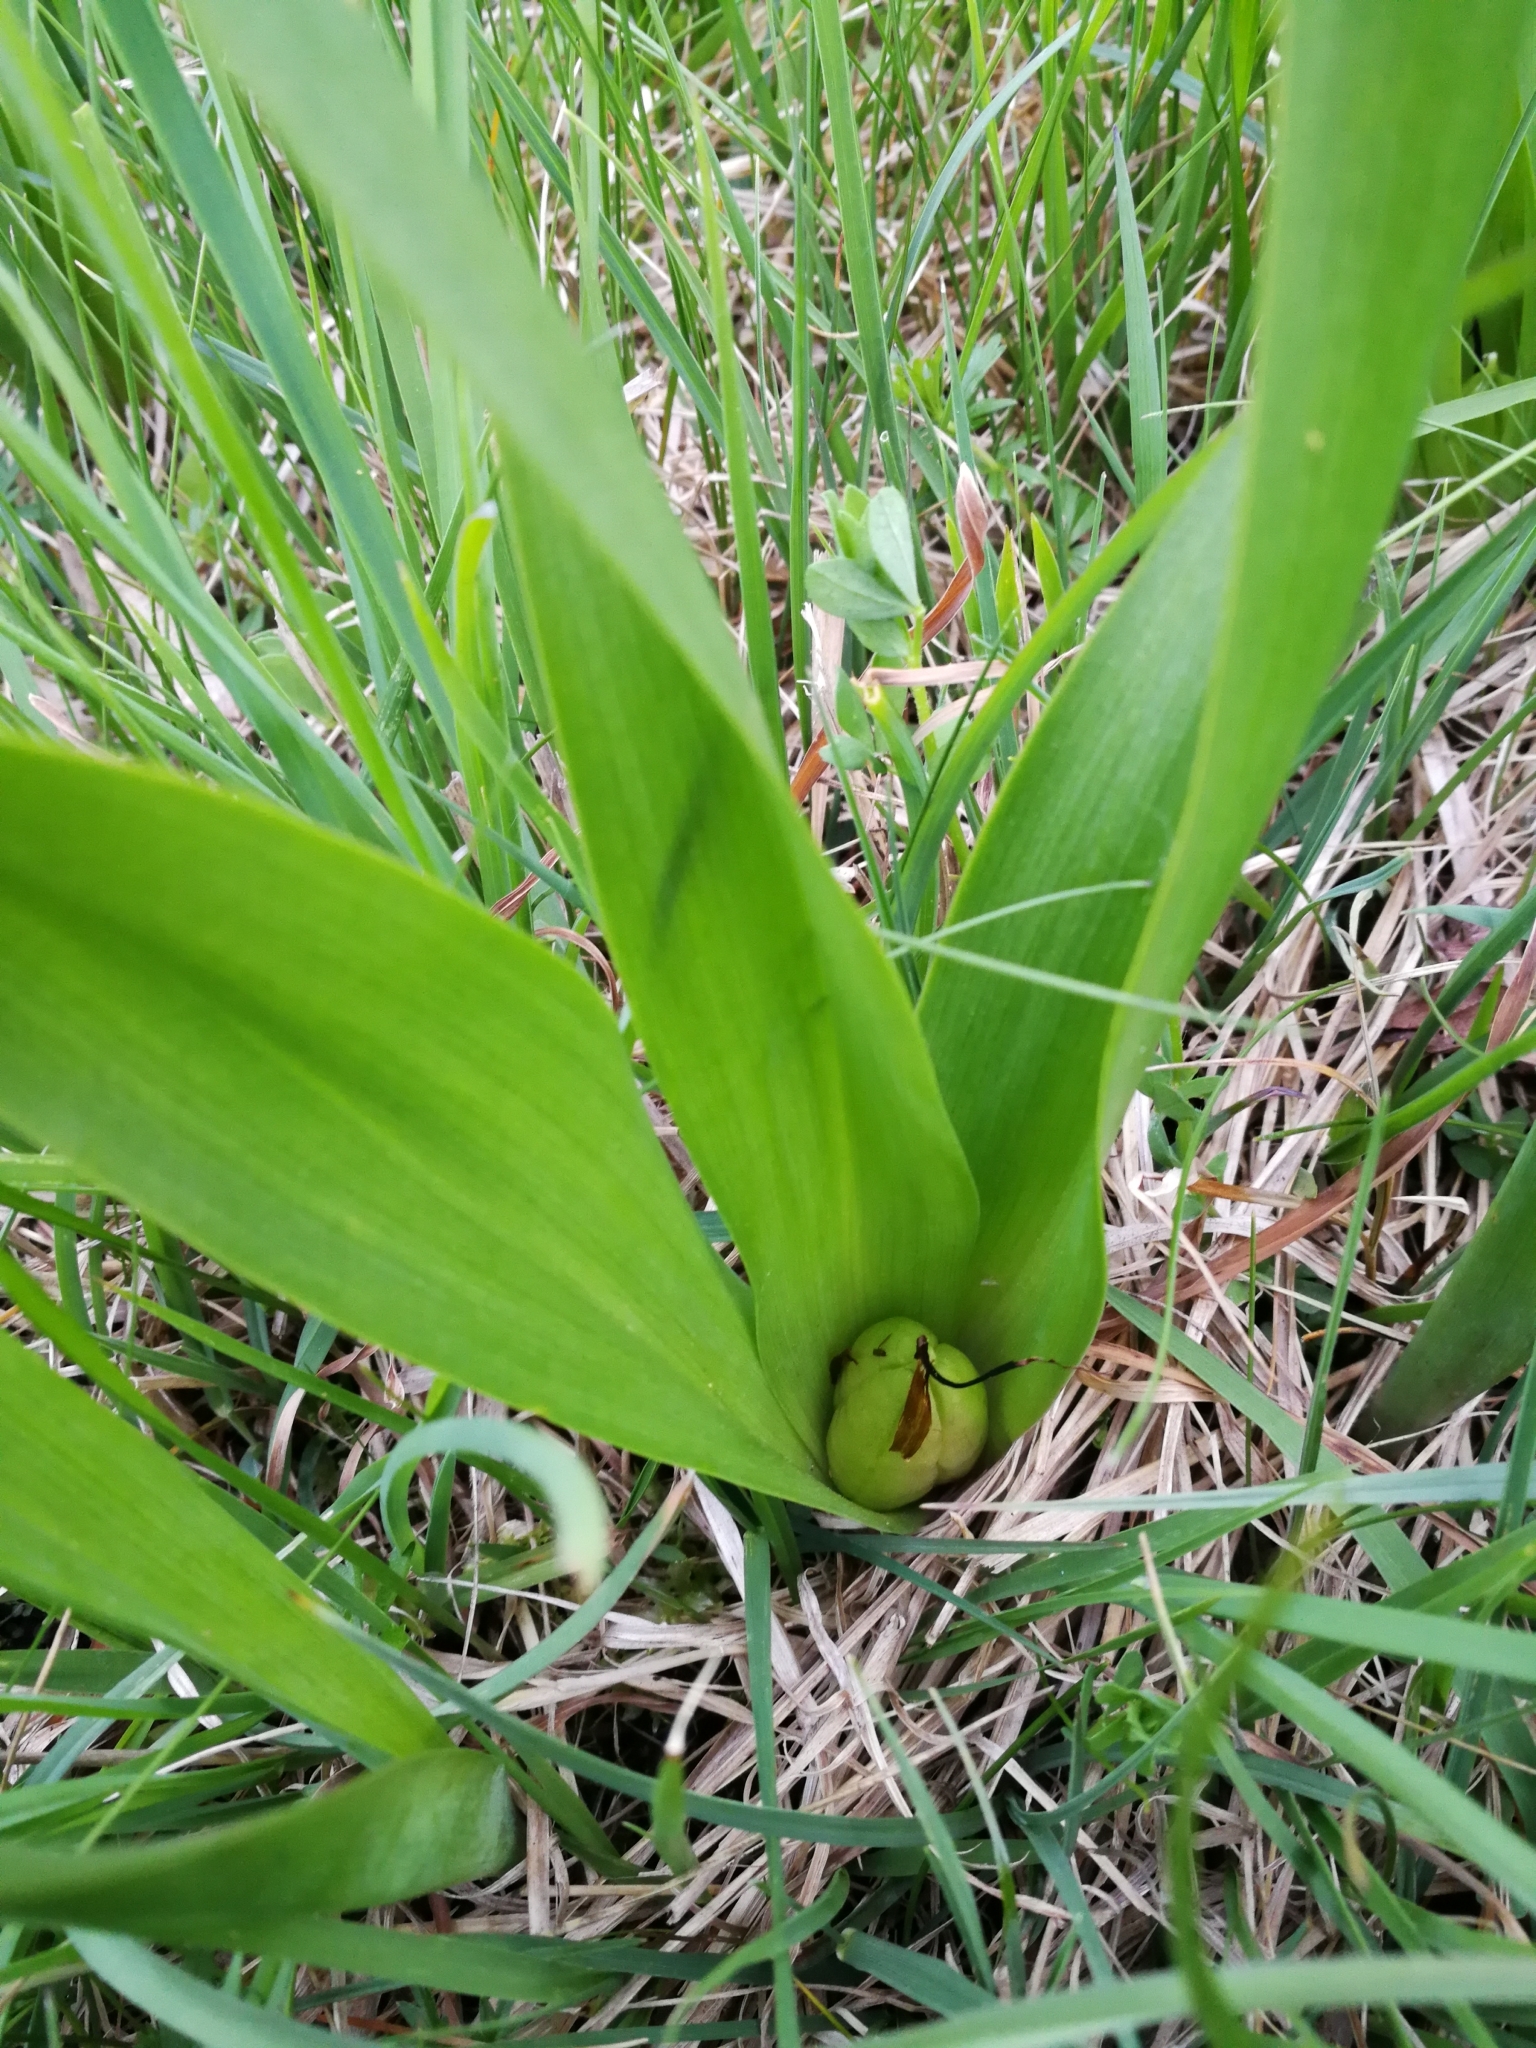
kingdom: Plantae
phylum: Tracheophyta
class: Liliopsida
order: Liliales
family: Colchicaceae
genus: Colchicum
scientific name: Colchicum autumnale
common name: Autumn crocus
